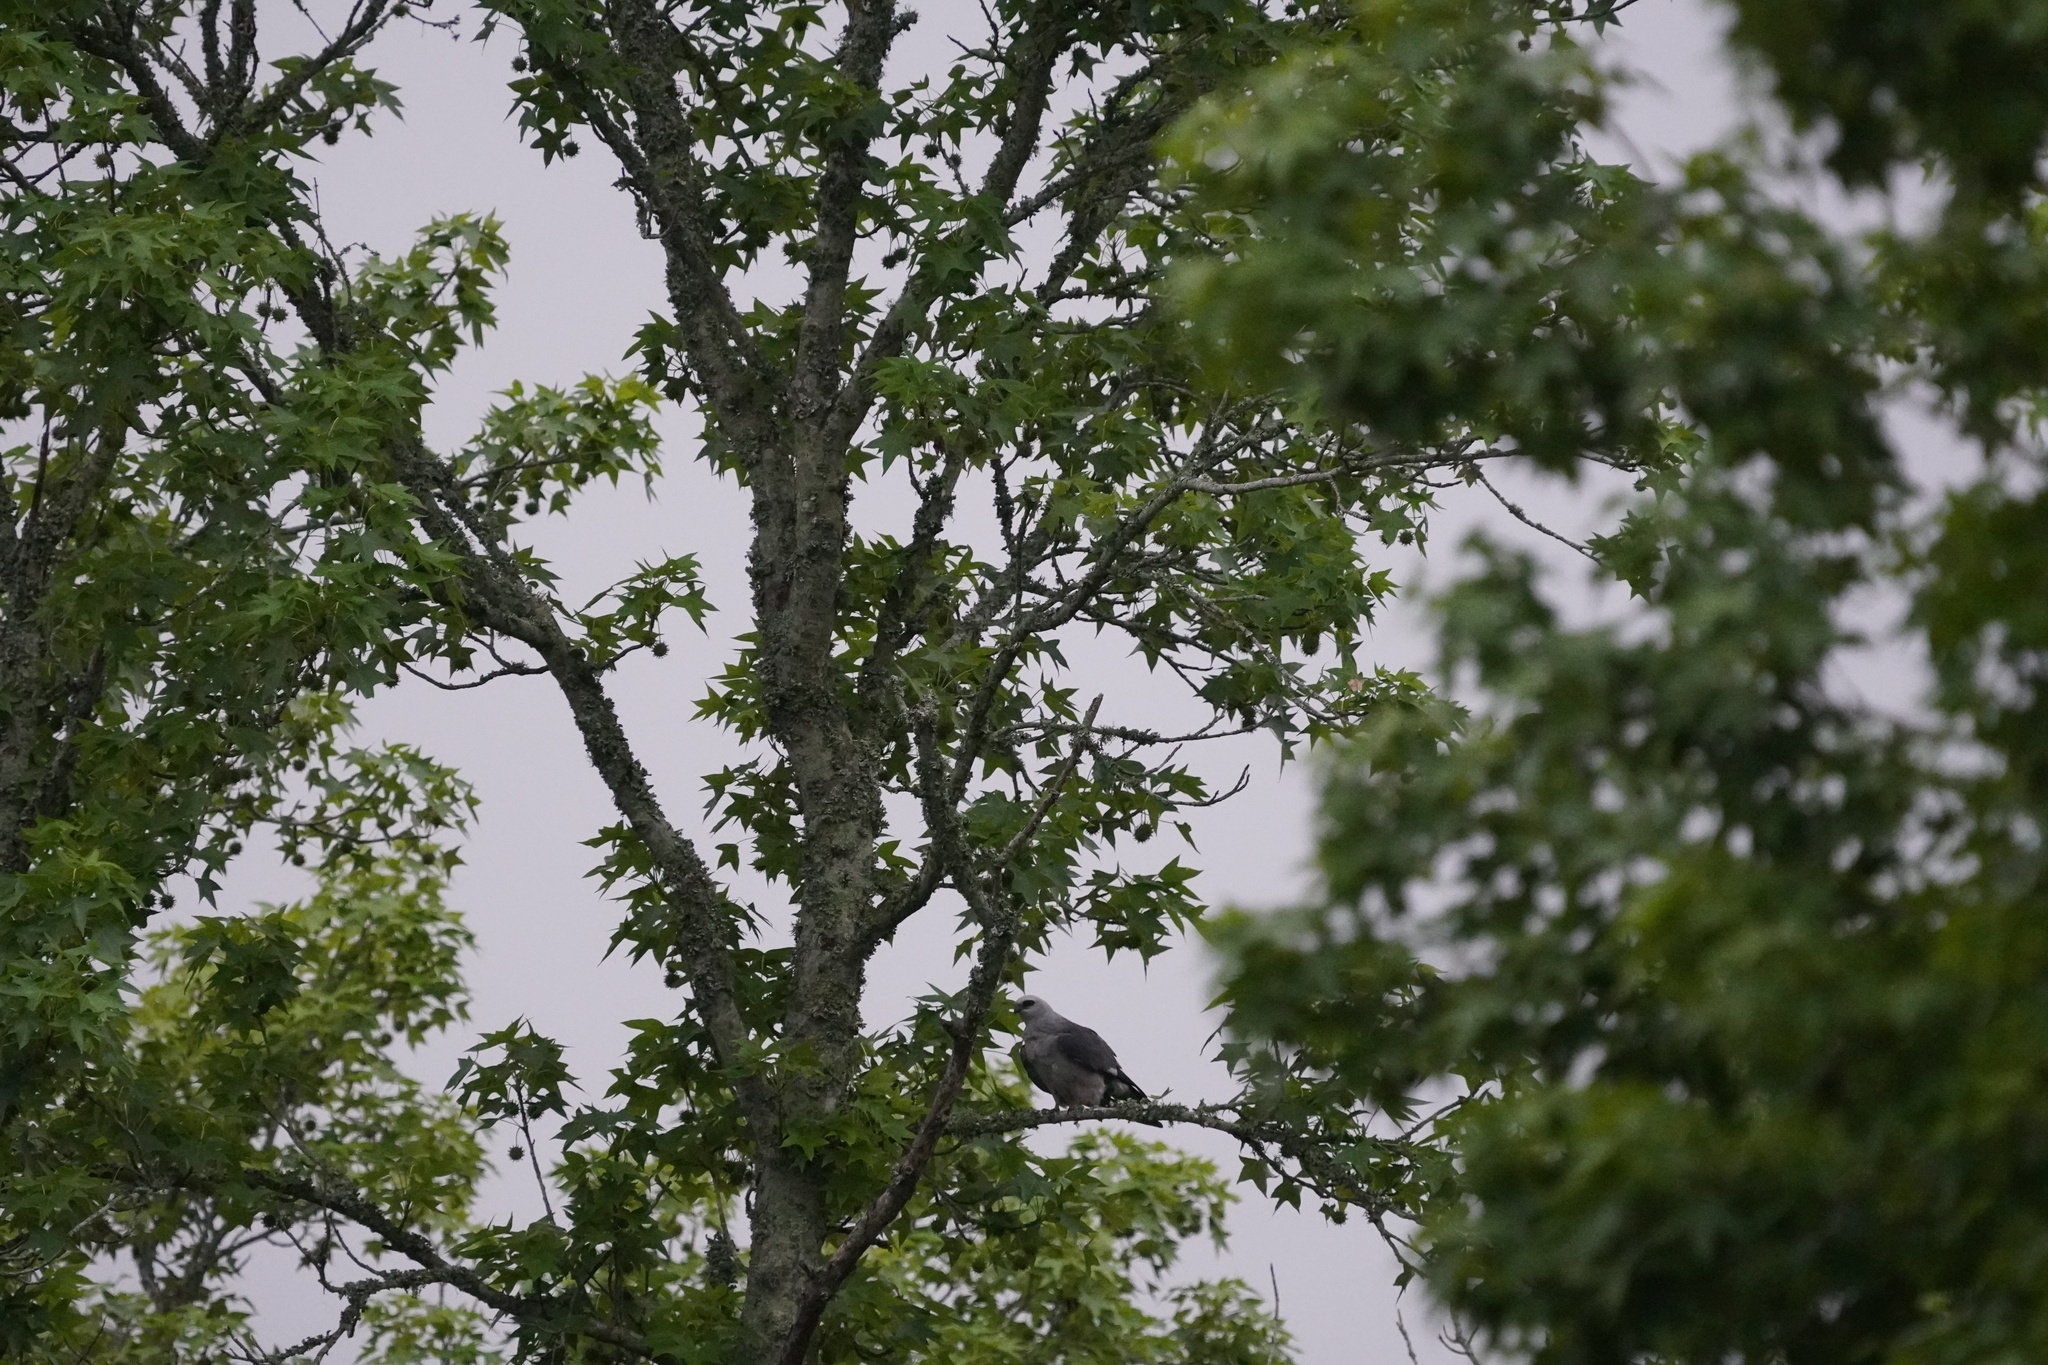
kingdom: Animalia
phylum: Chordata
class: Aves
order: Accipitriformes
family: Accipitridae
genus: Ictinia
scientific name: Ictinia mississippiensis
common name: Mississippi kite
